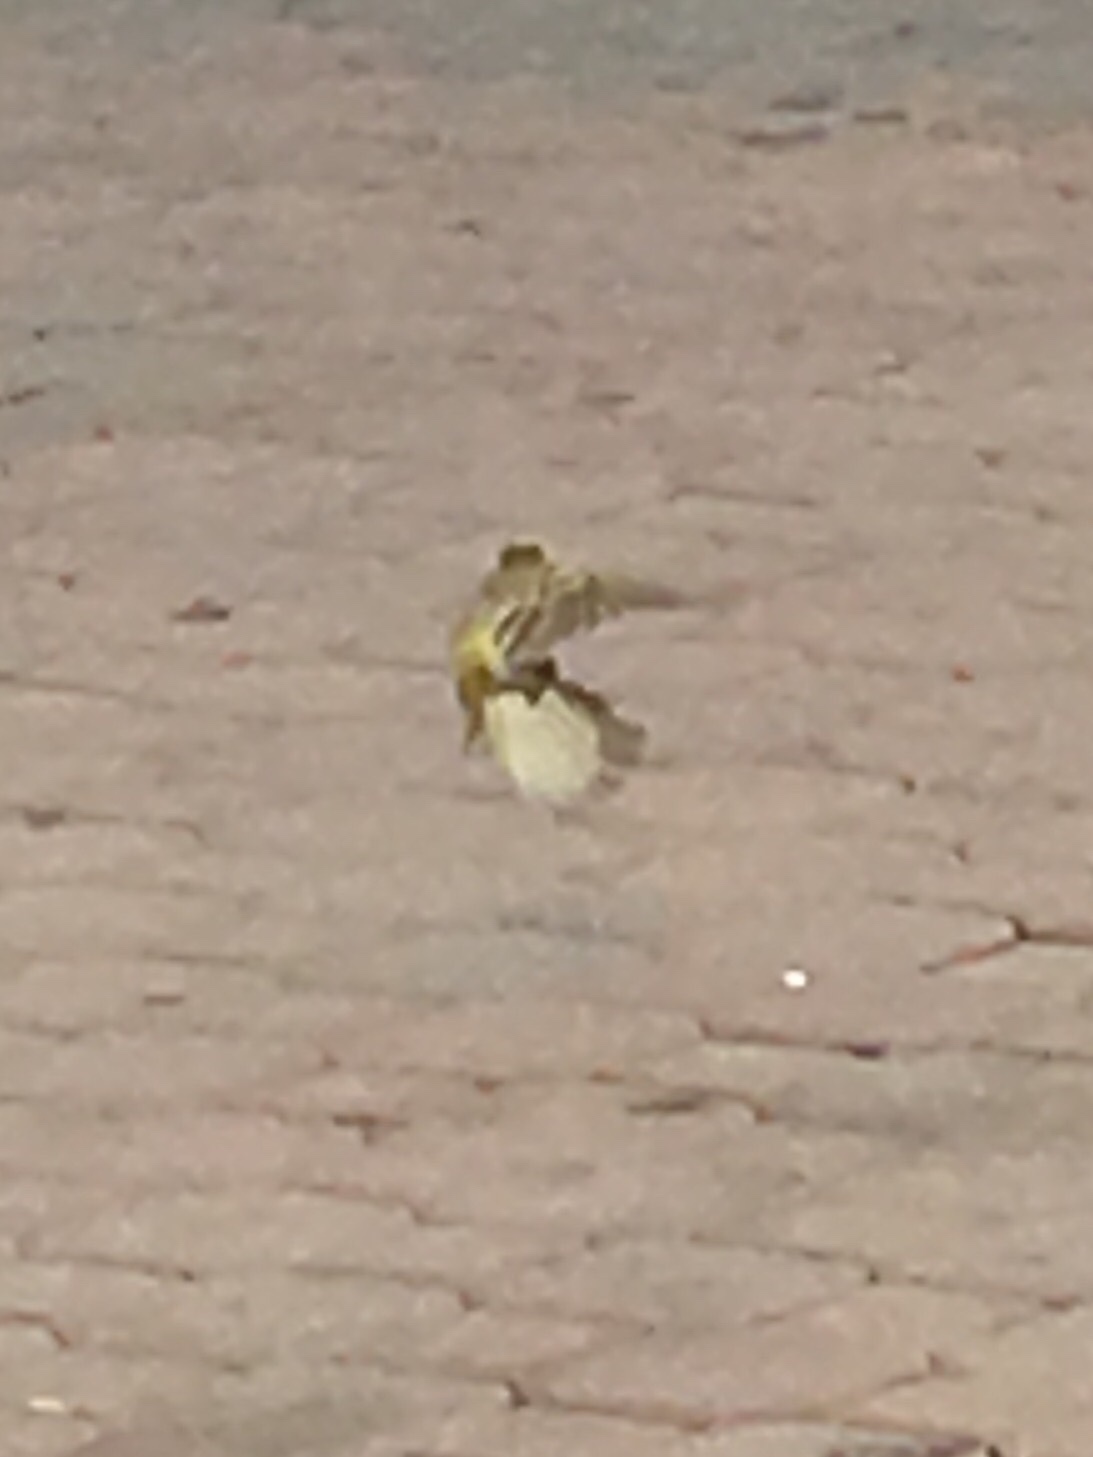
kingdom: Animalia
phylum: Chordata
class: Aves
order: Passeriformes
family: Ploceidae
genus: Ploceus
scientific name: Ploceus capensis
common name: Cape weaver
